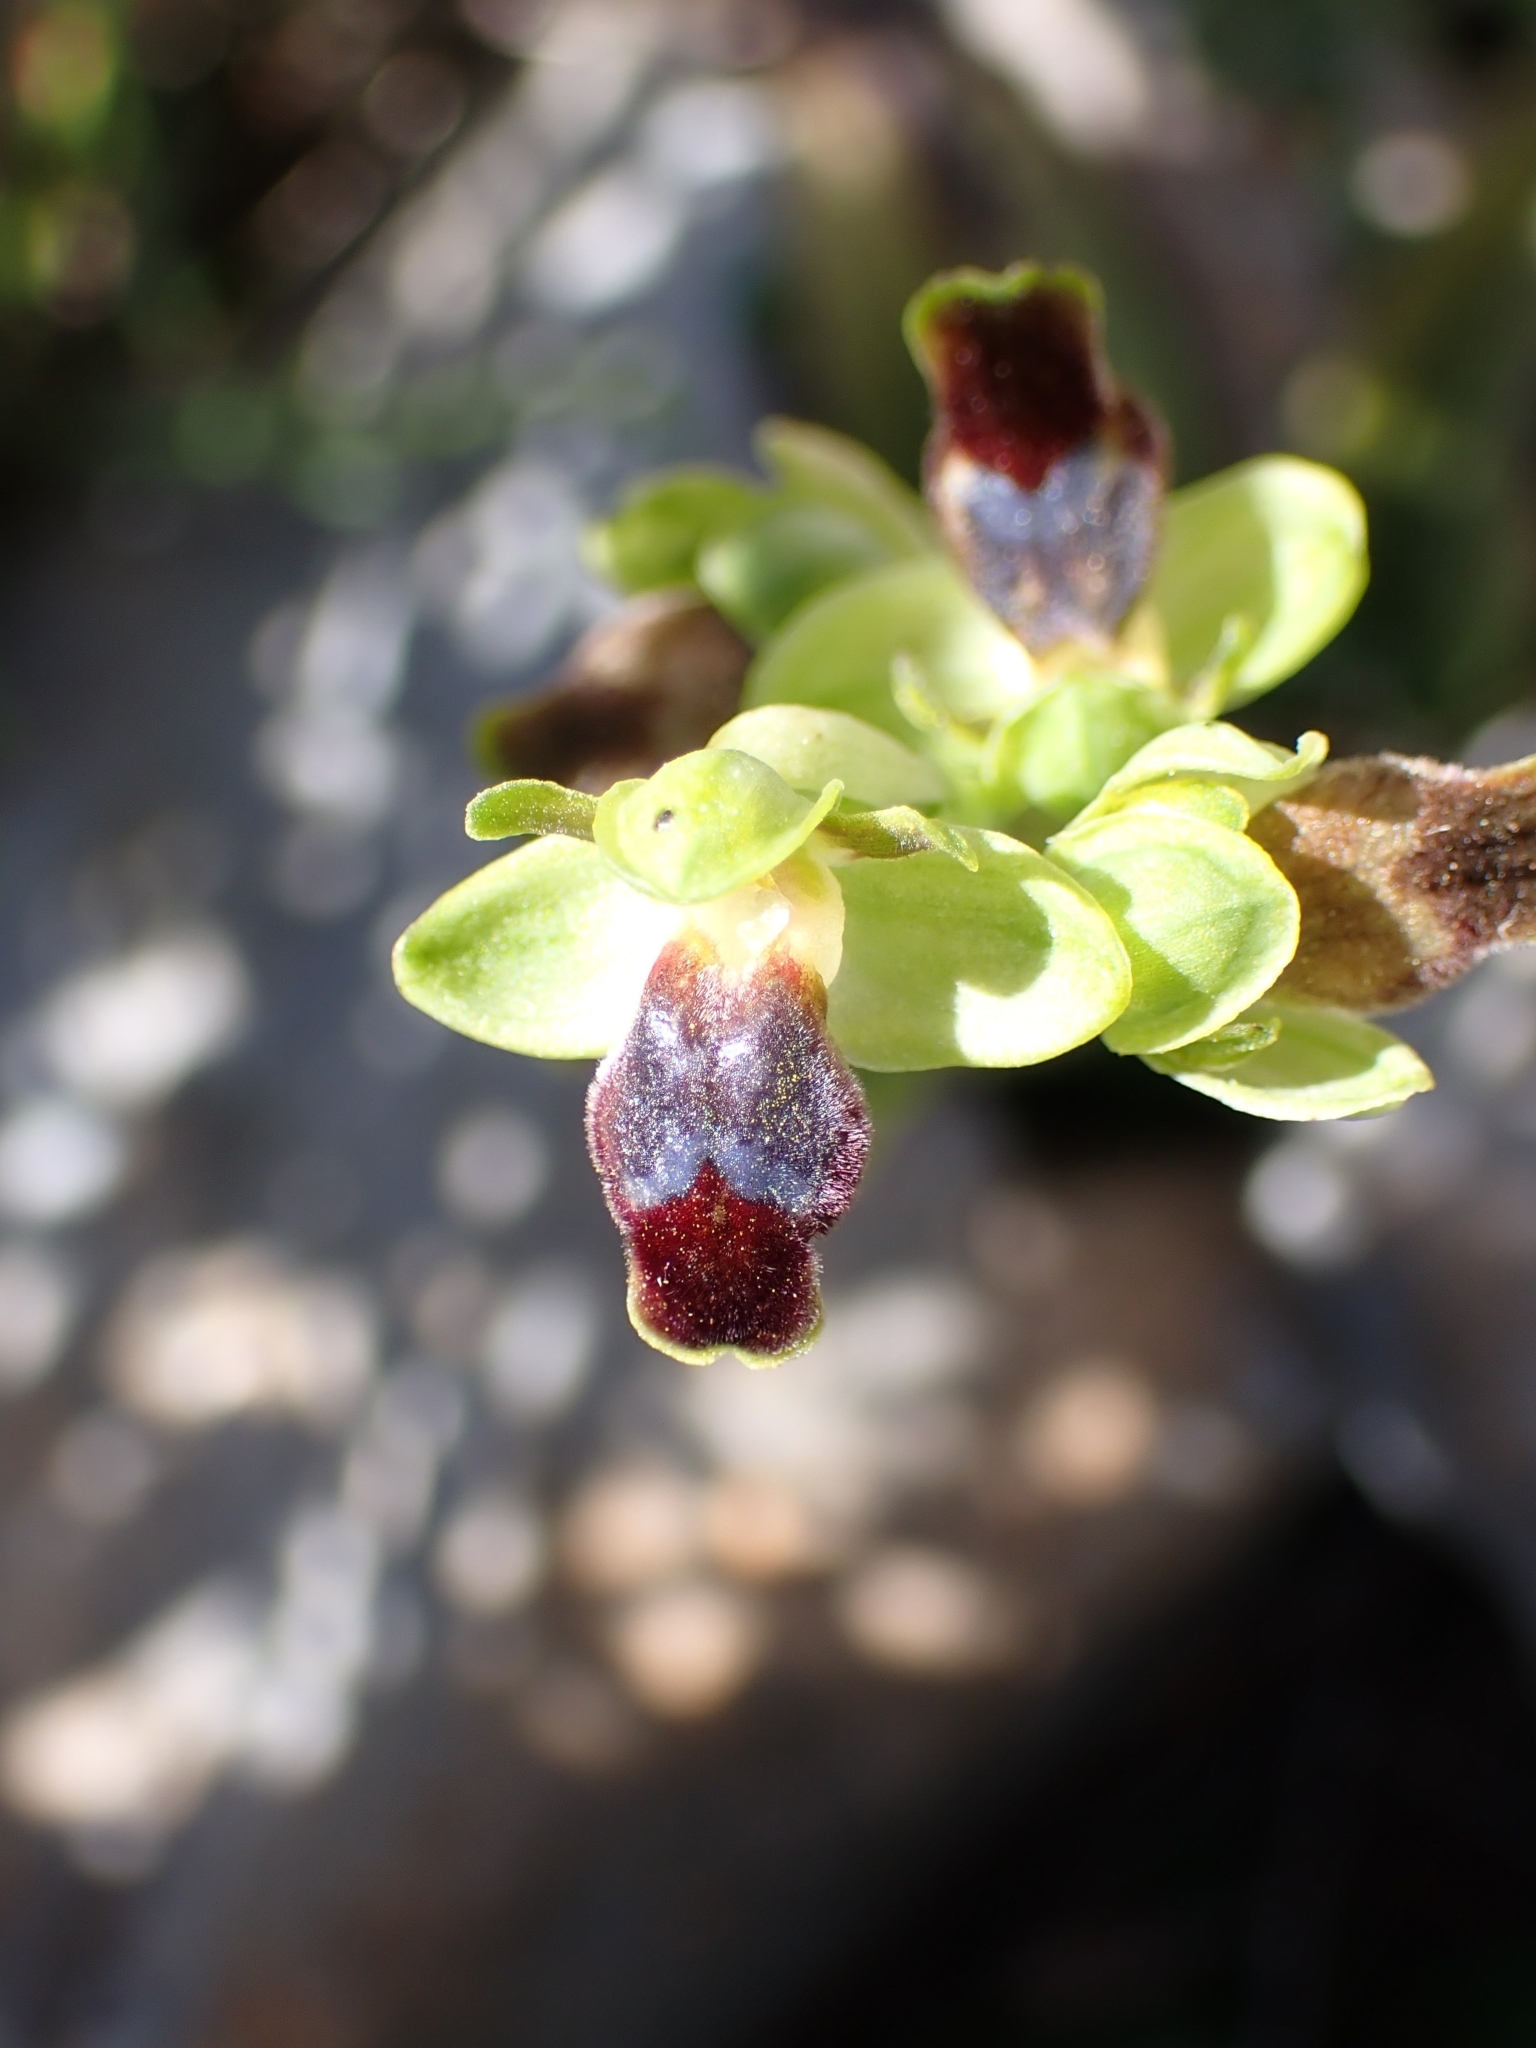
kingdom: Plantae
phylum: Tracheophyta
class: Liliopsida
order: Asparagales
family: Orchidaceae
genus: Ophrys
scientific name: Ophrys fusca
